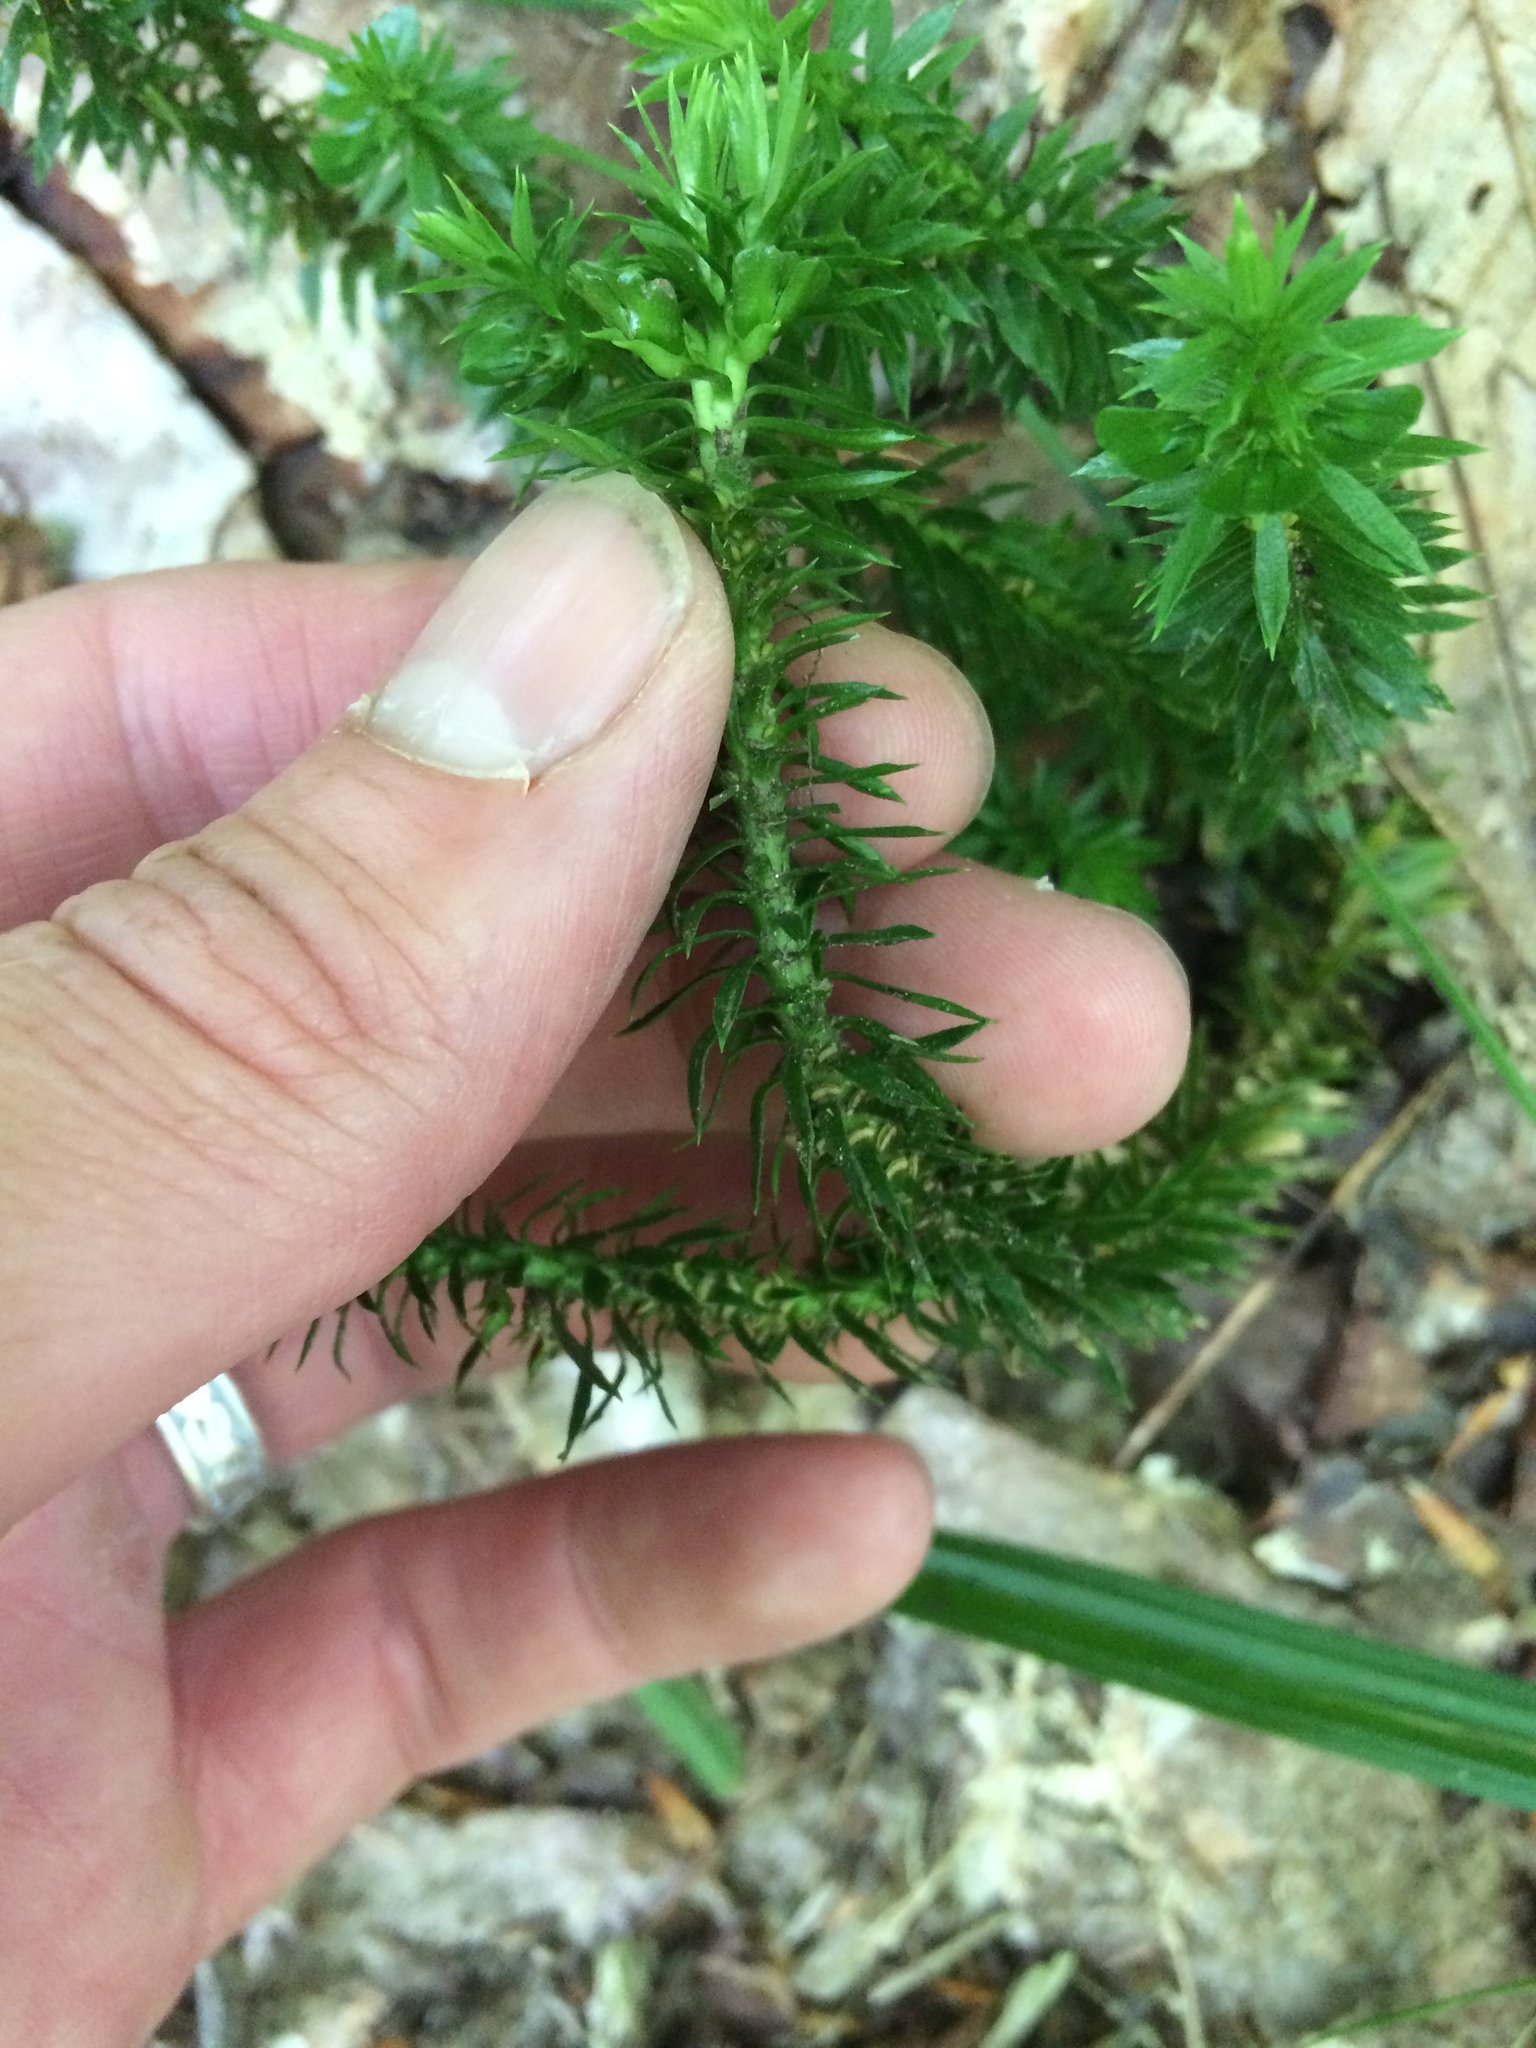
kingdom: Plantae
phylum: Tracheophyta
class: Lycopodiopsida
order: Lycopodiales
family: Lycopodiaceae
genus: Huperzia
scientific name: Huperzia lucidula
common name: Shining clubmoss
